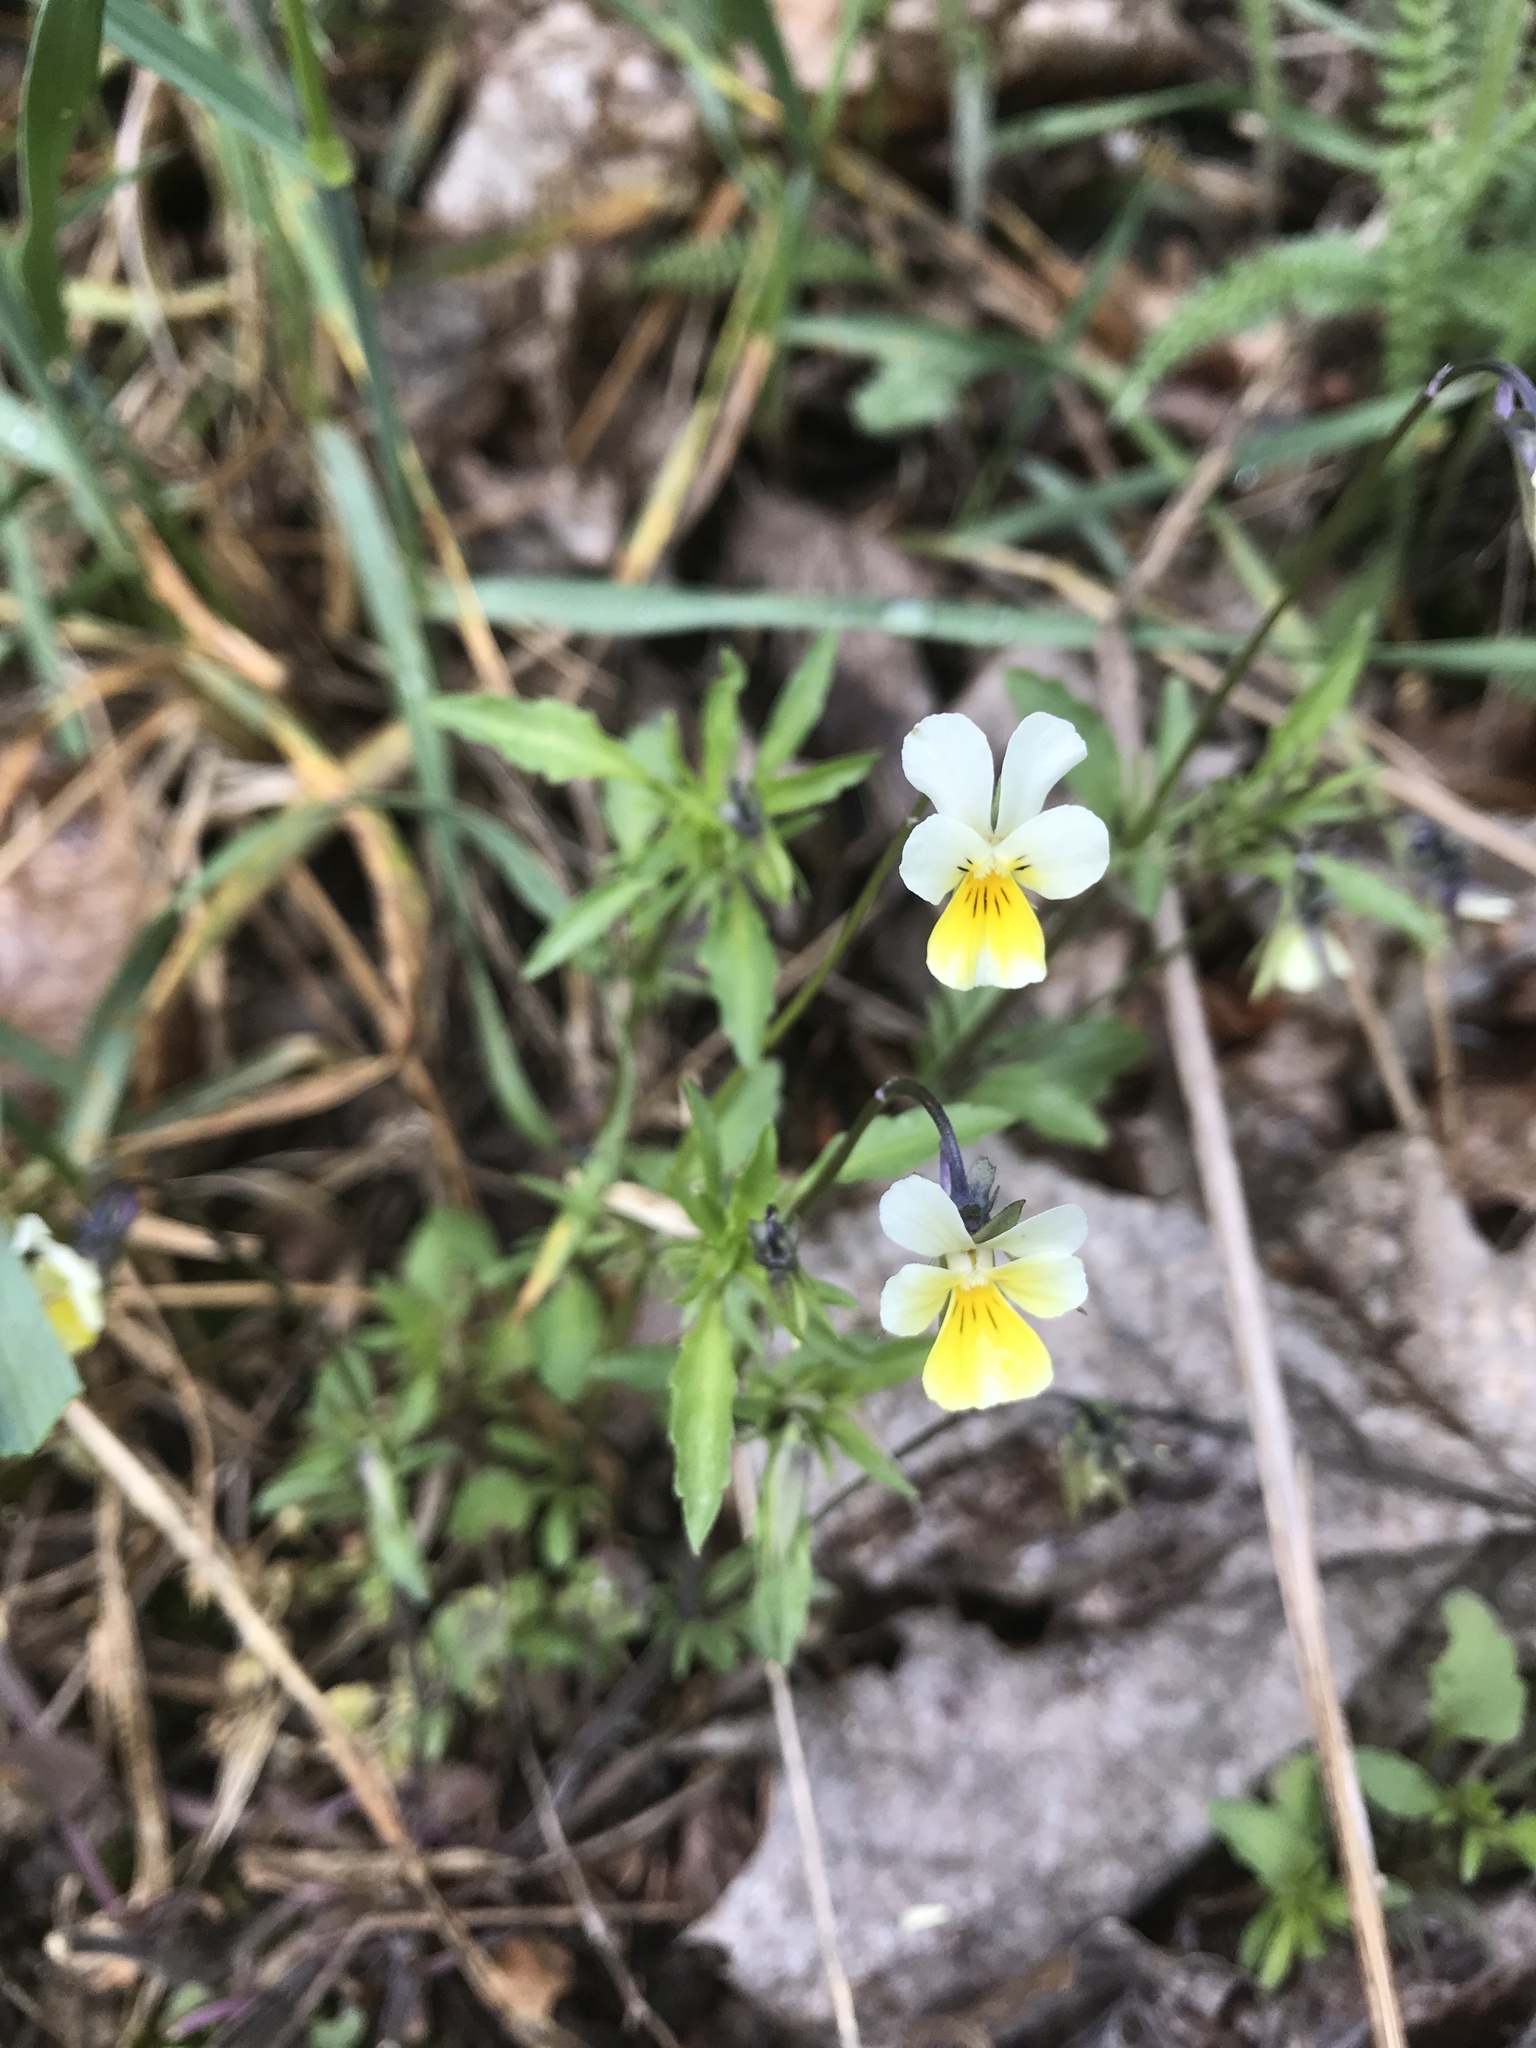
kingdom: Plantae
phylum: Tracheophyta
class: Magnoliopsida
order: Malpighiales
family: Violaceae
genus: Viola
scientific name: Viola arvensis
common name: Field pansy
